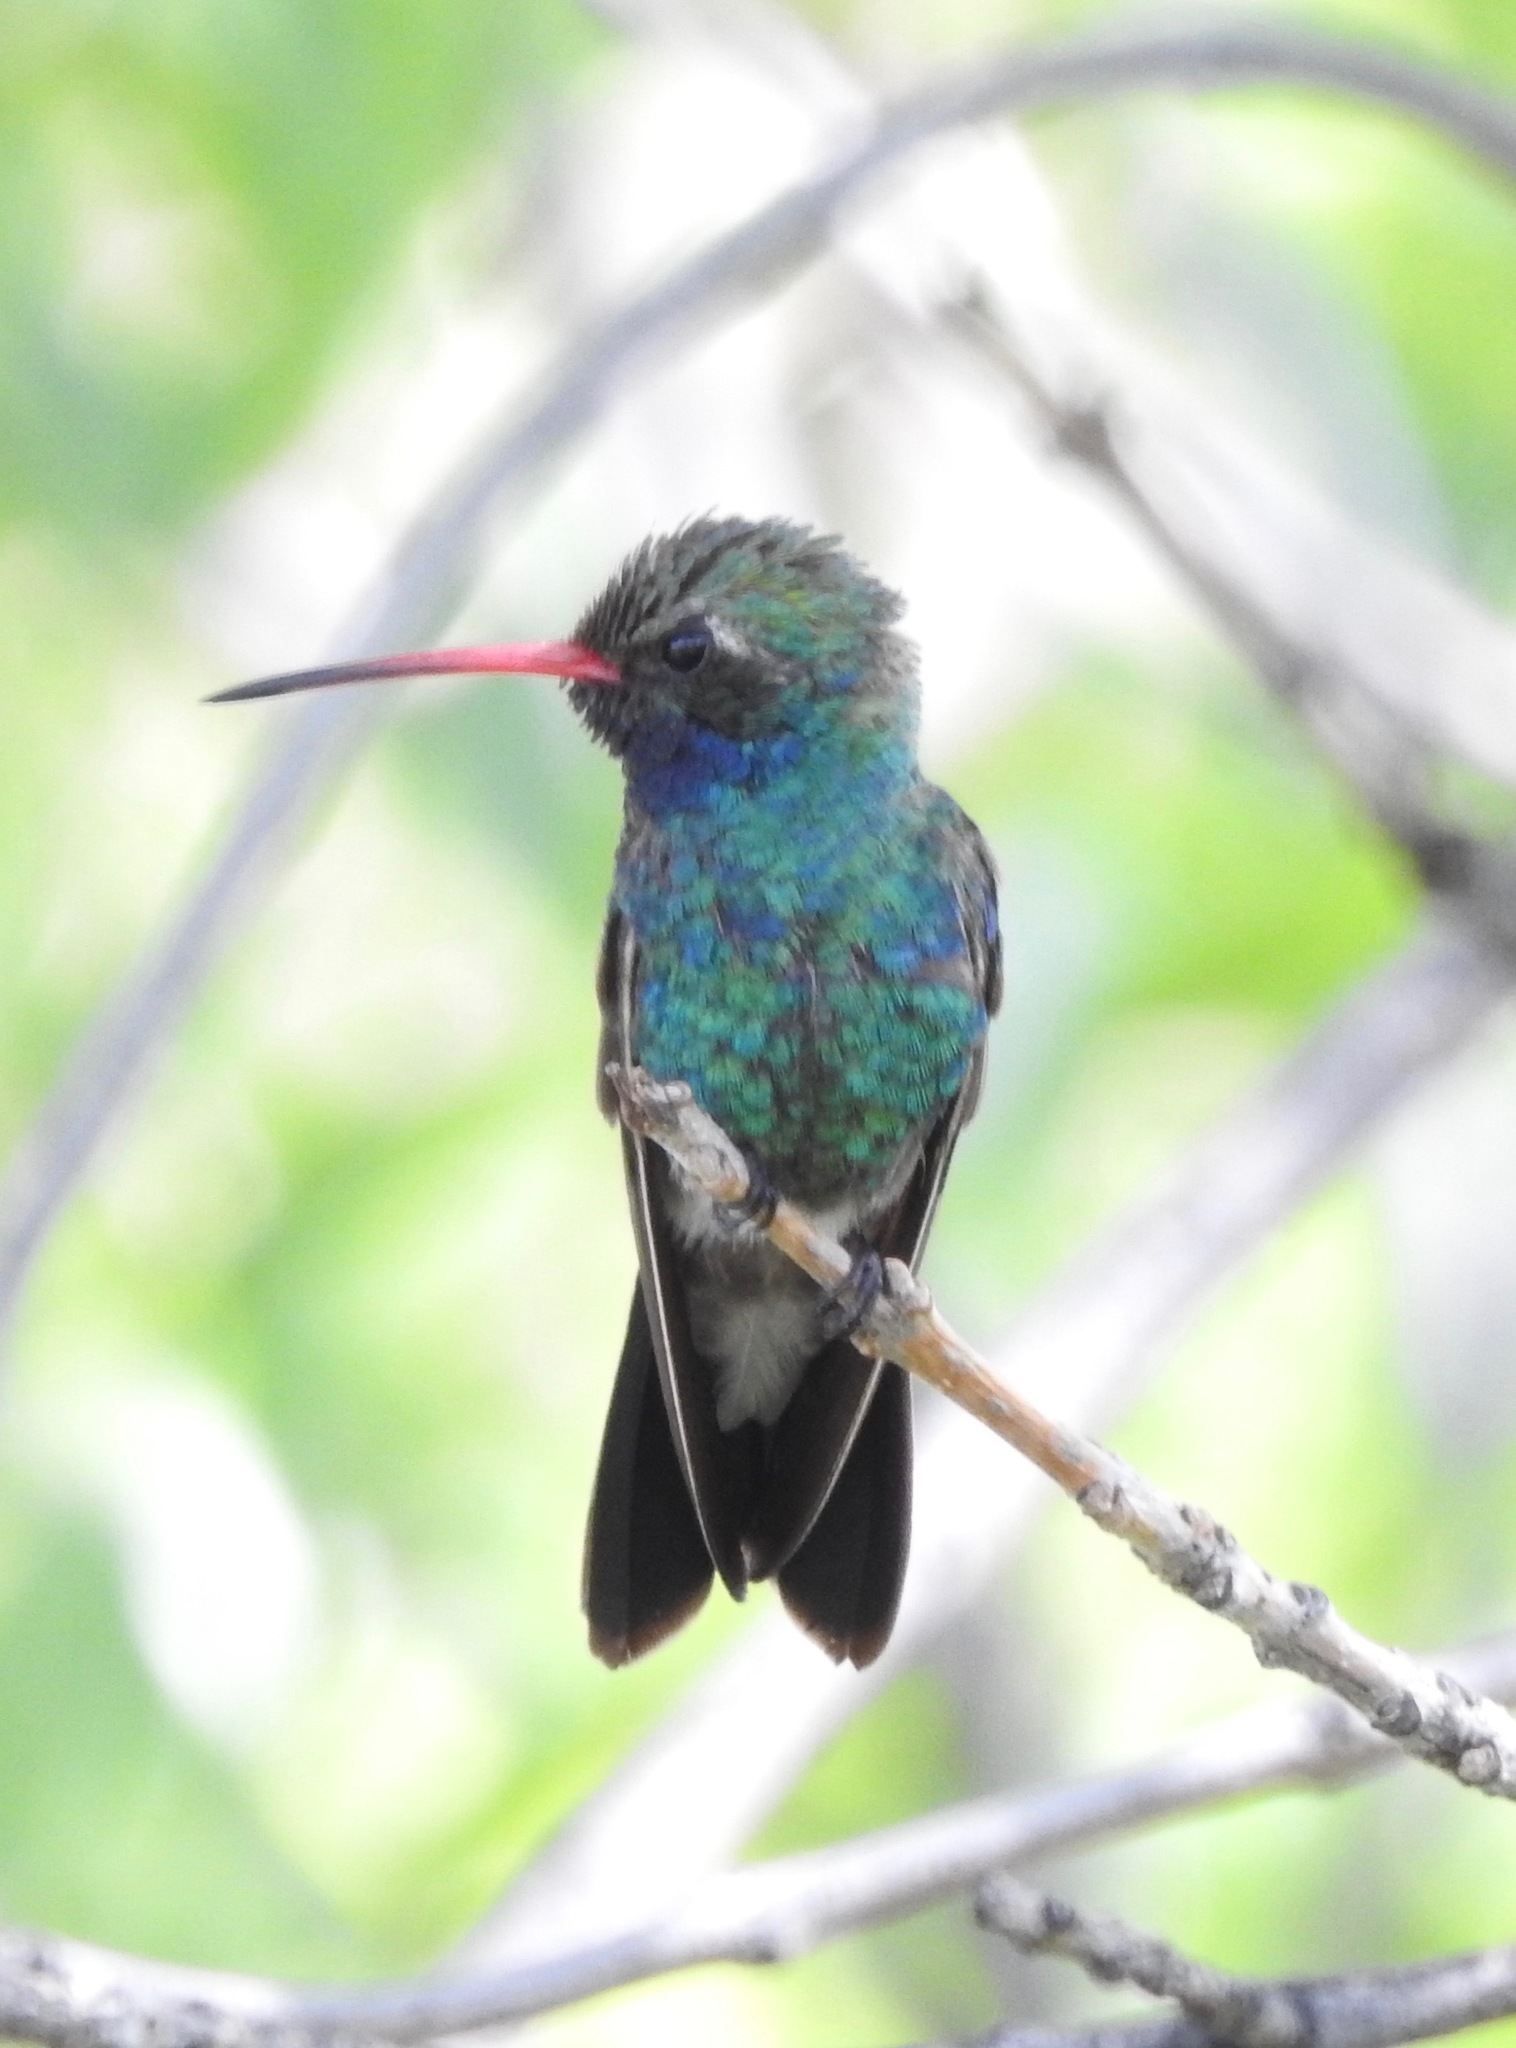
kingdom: Animalia
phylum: Chordata
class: Aves
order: Apodiformes
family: Trochilidae
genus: Cynanthus
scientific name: Cynanthus latirostris
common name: Broad-billed hummingbird
